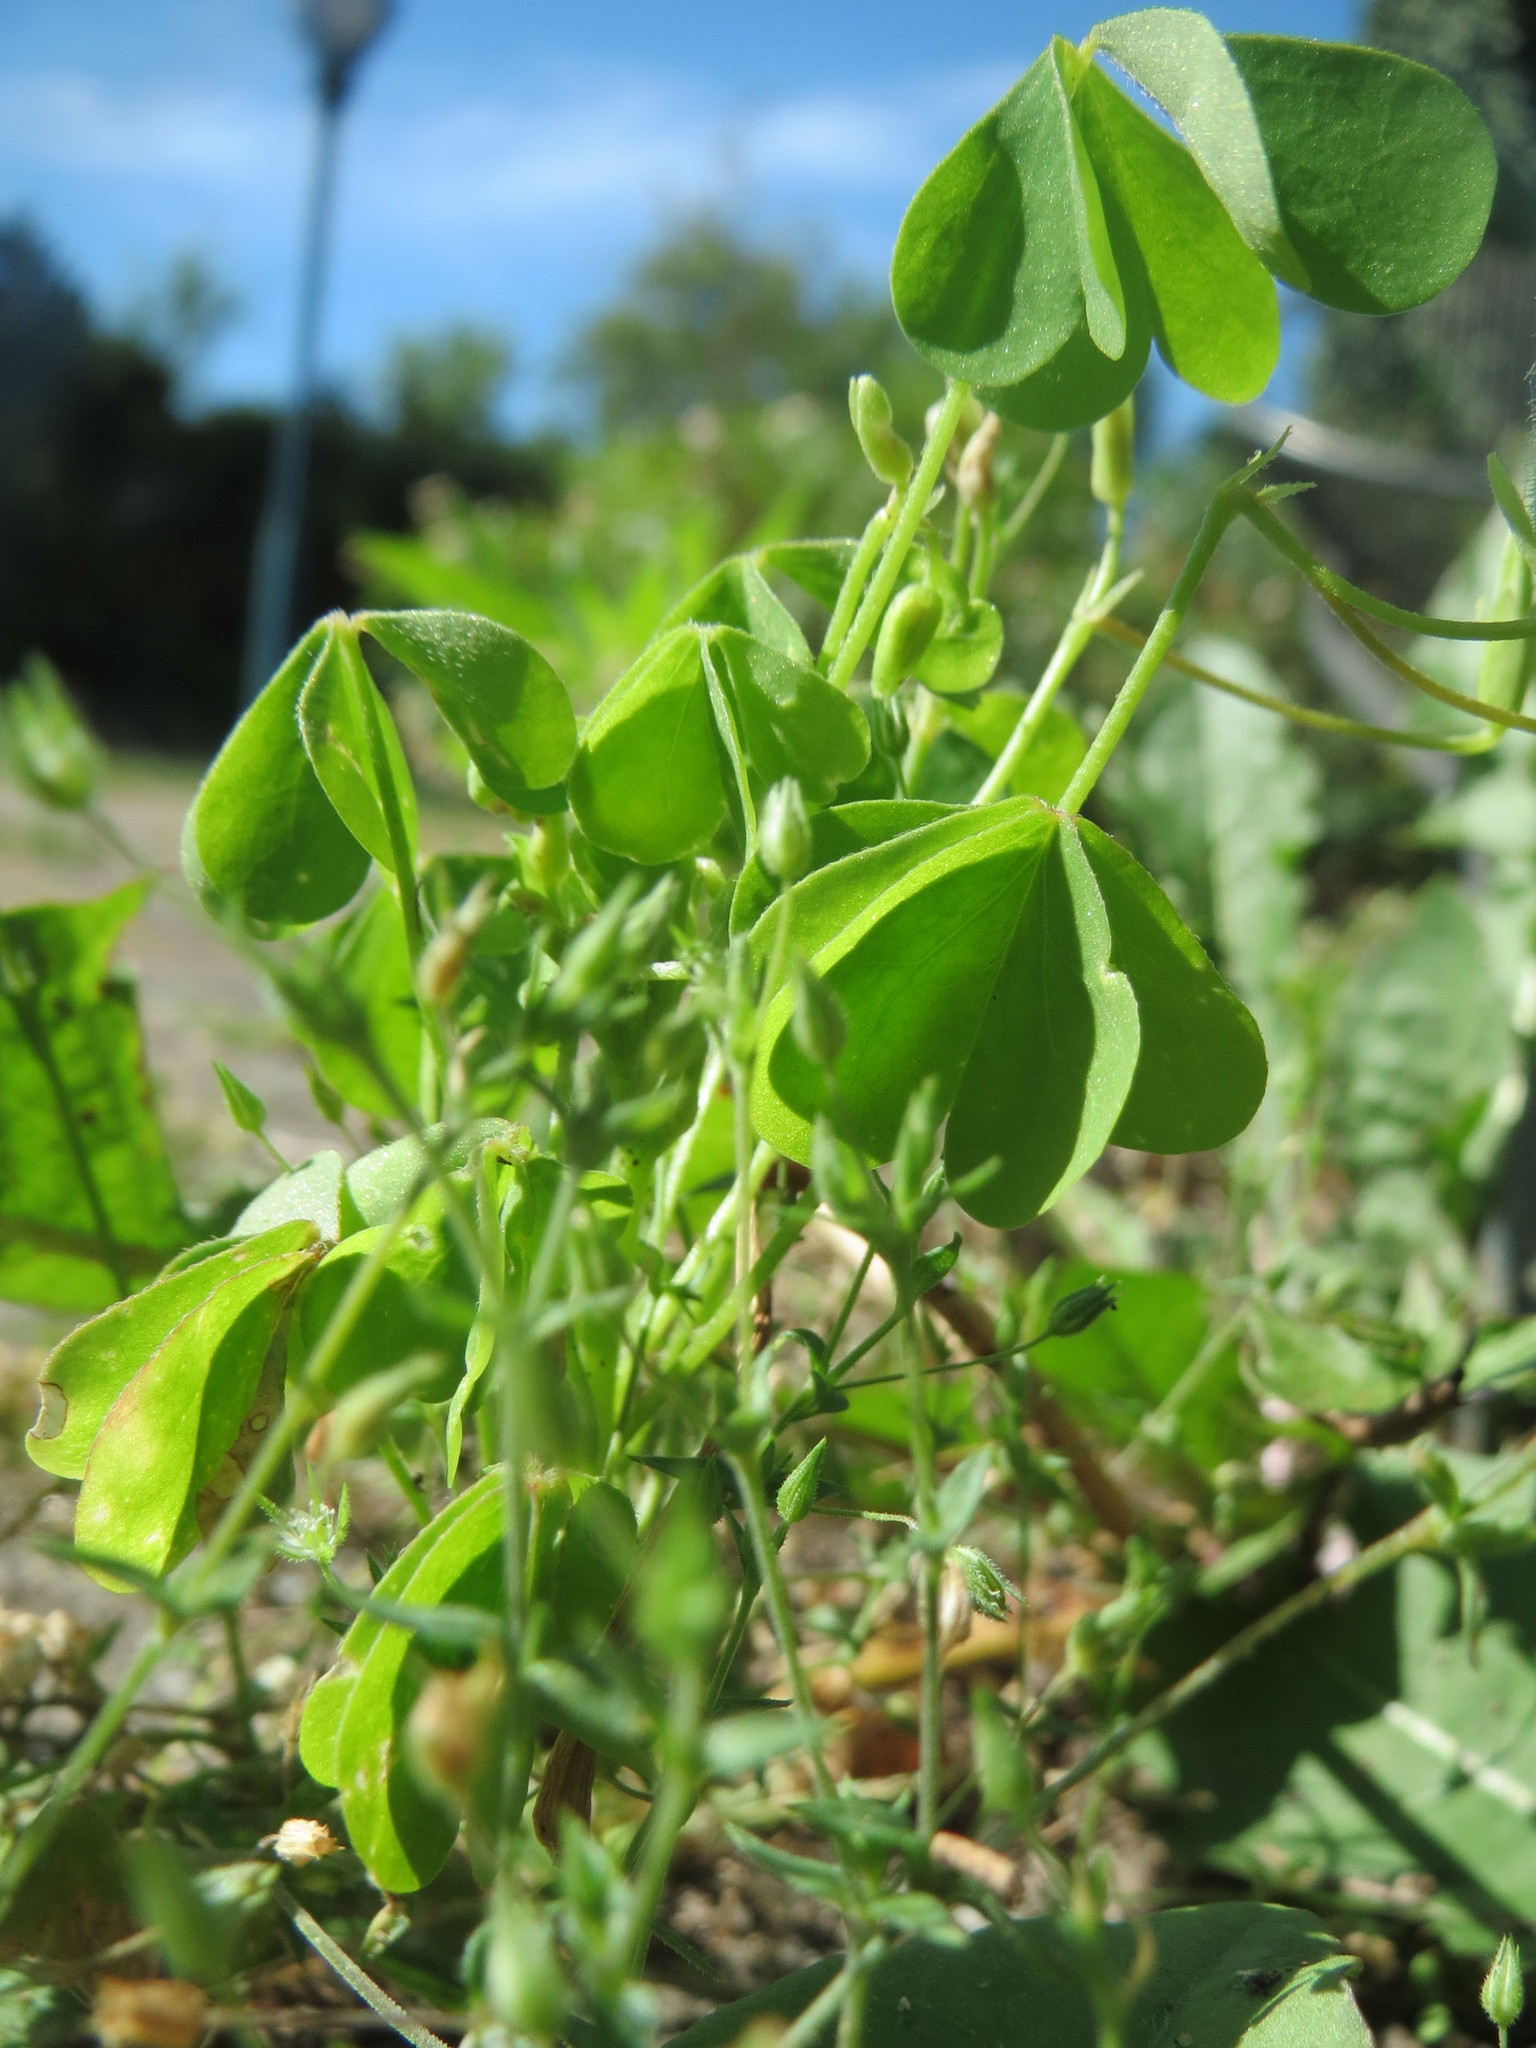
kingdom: Plantae
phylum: Tracheophyta
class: Magnoliopsida
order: Oxalidales
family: Oxalidaceae
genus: Oxalis
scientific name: Oxalis stricta
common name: Upright yellow-sorrel
